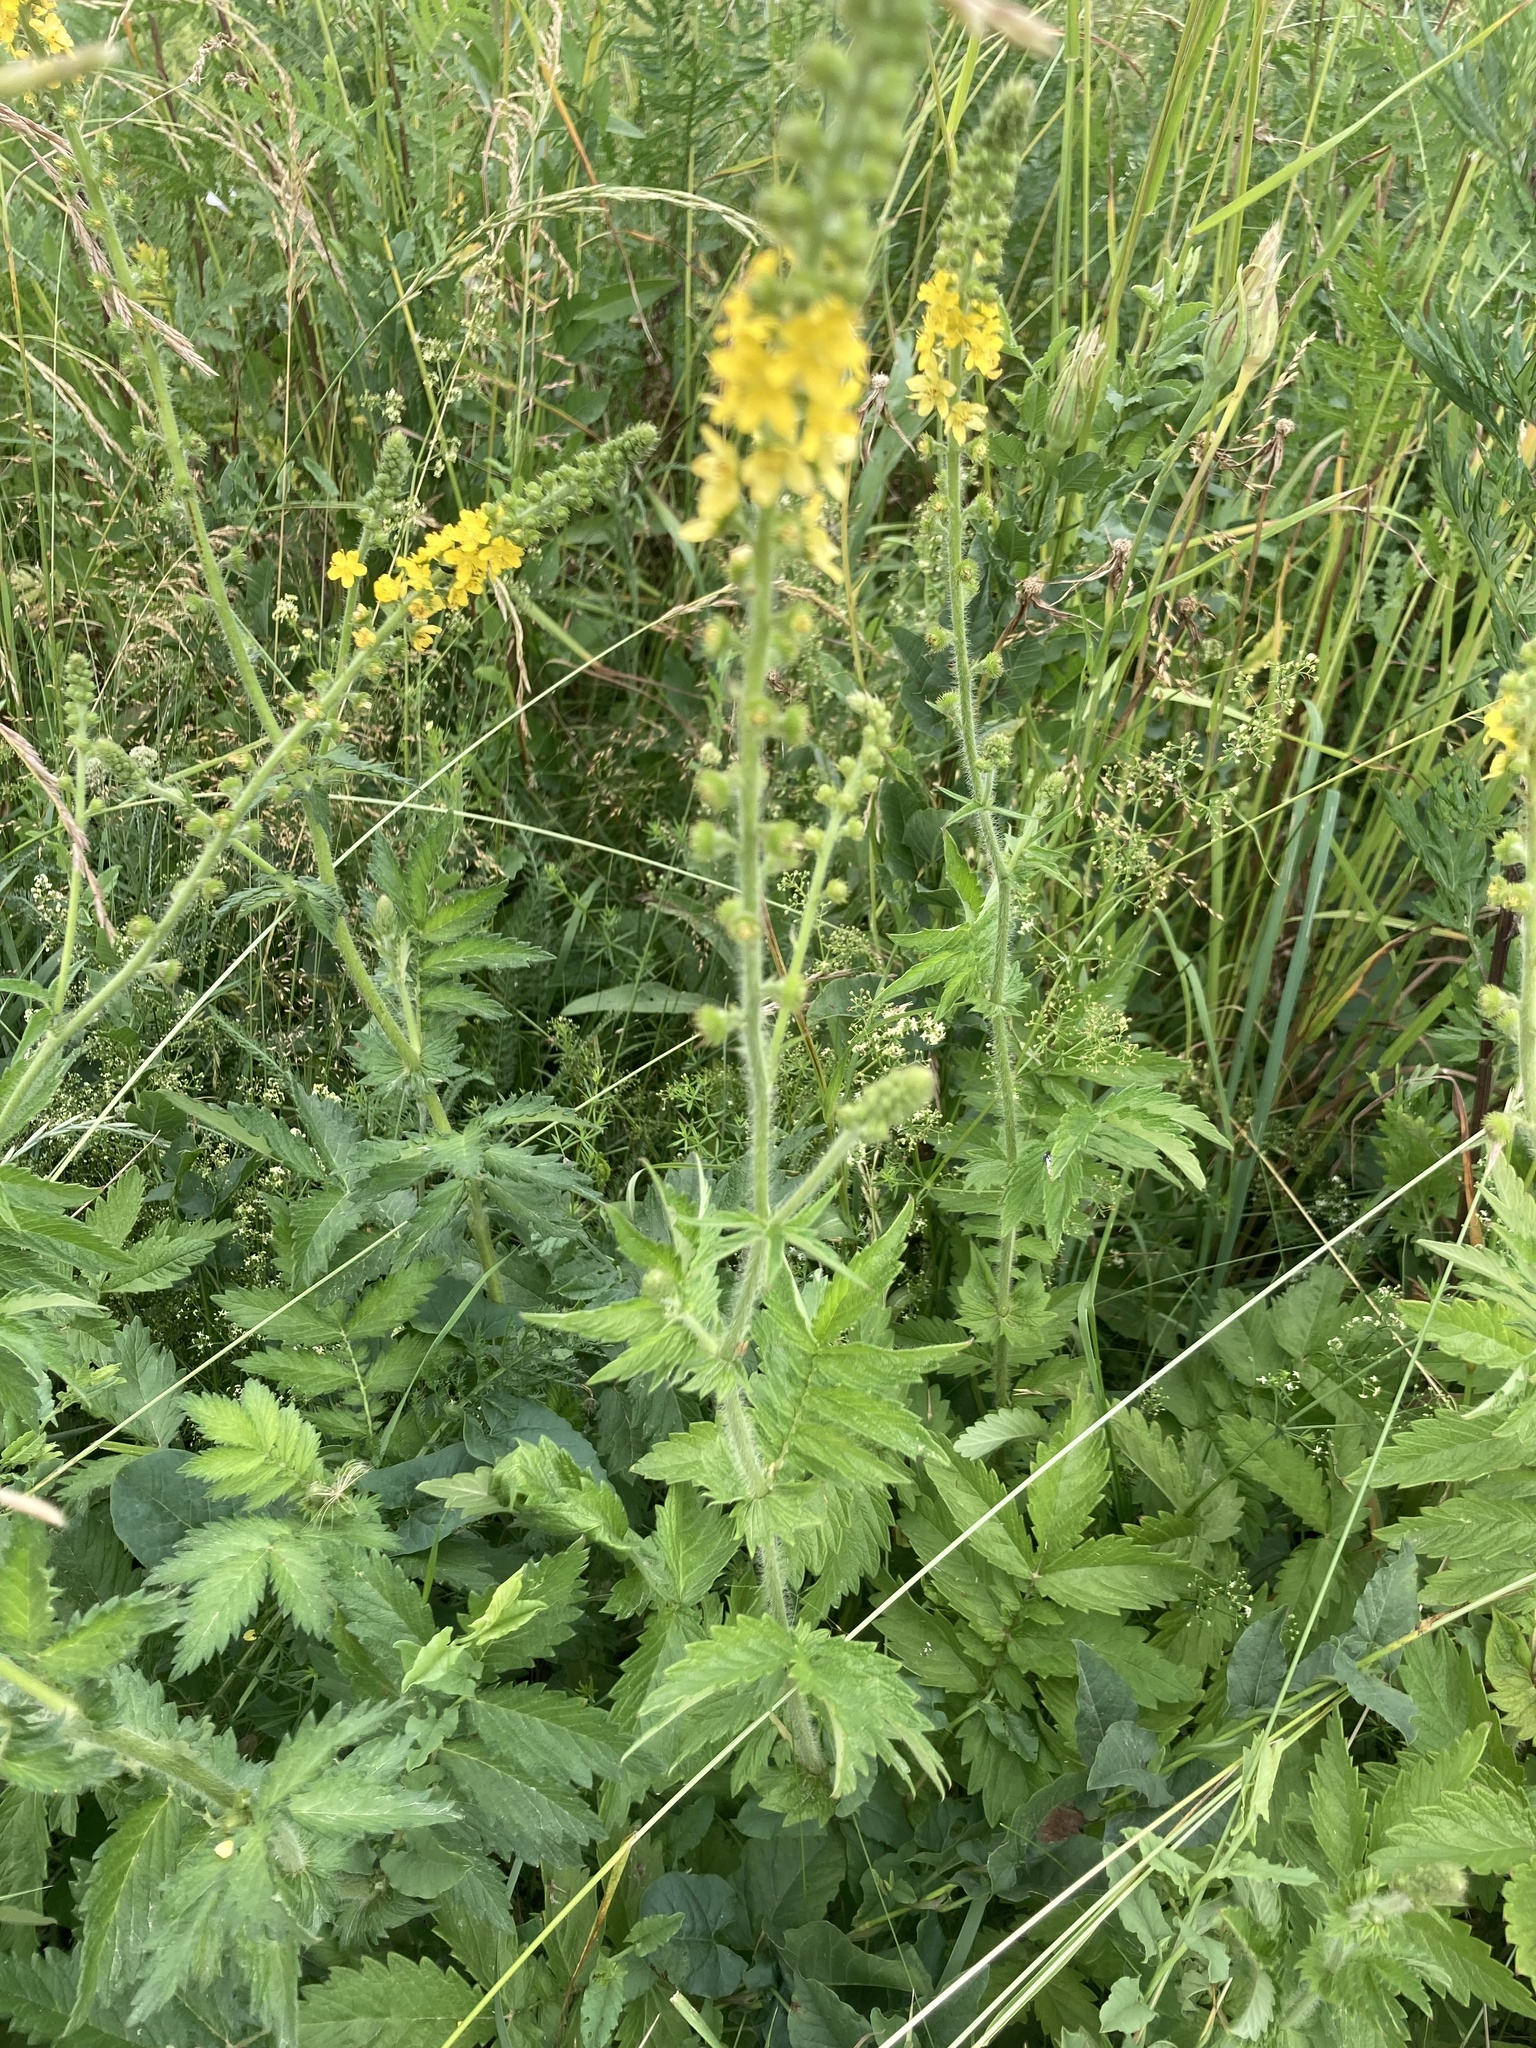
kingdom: Plantae
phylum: Tracheophyta
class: Magnoliopsida
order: Rosales
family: Rosaceae
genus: Agrimonia
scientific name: Agrimonia eupatoria
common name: Agrimony
